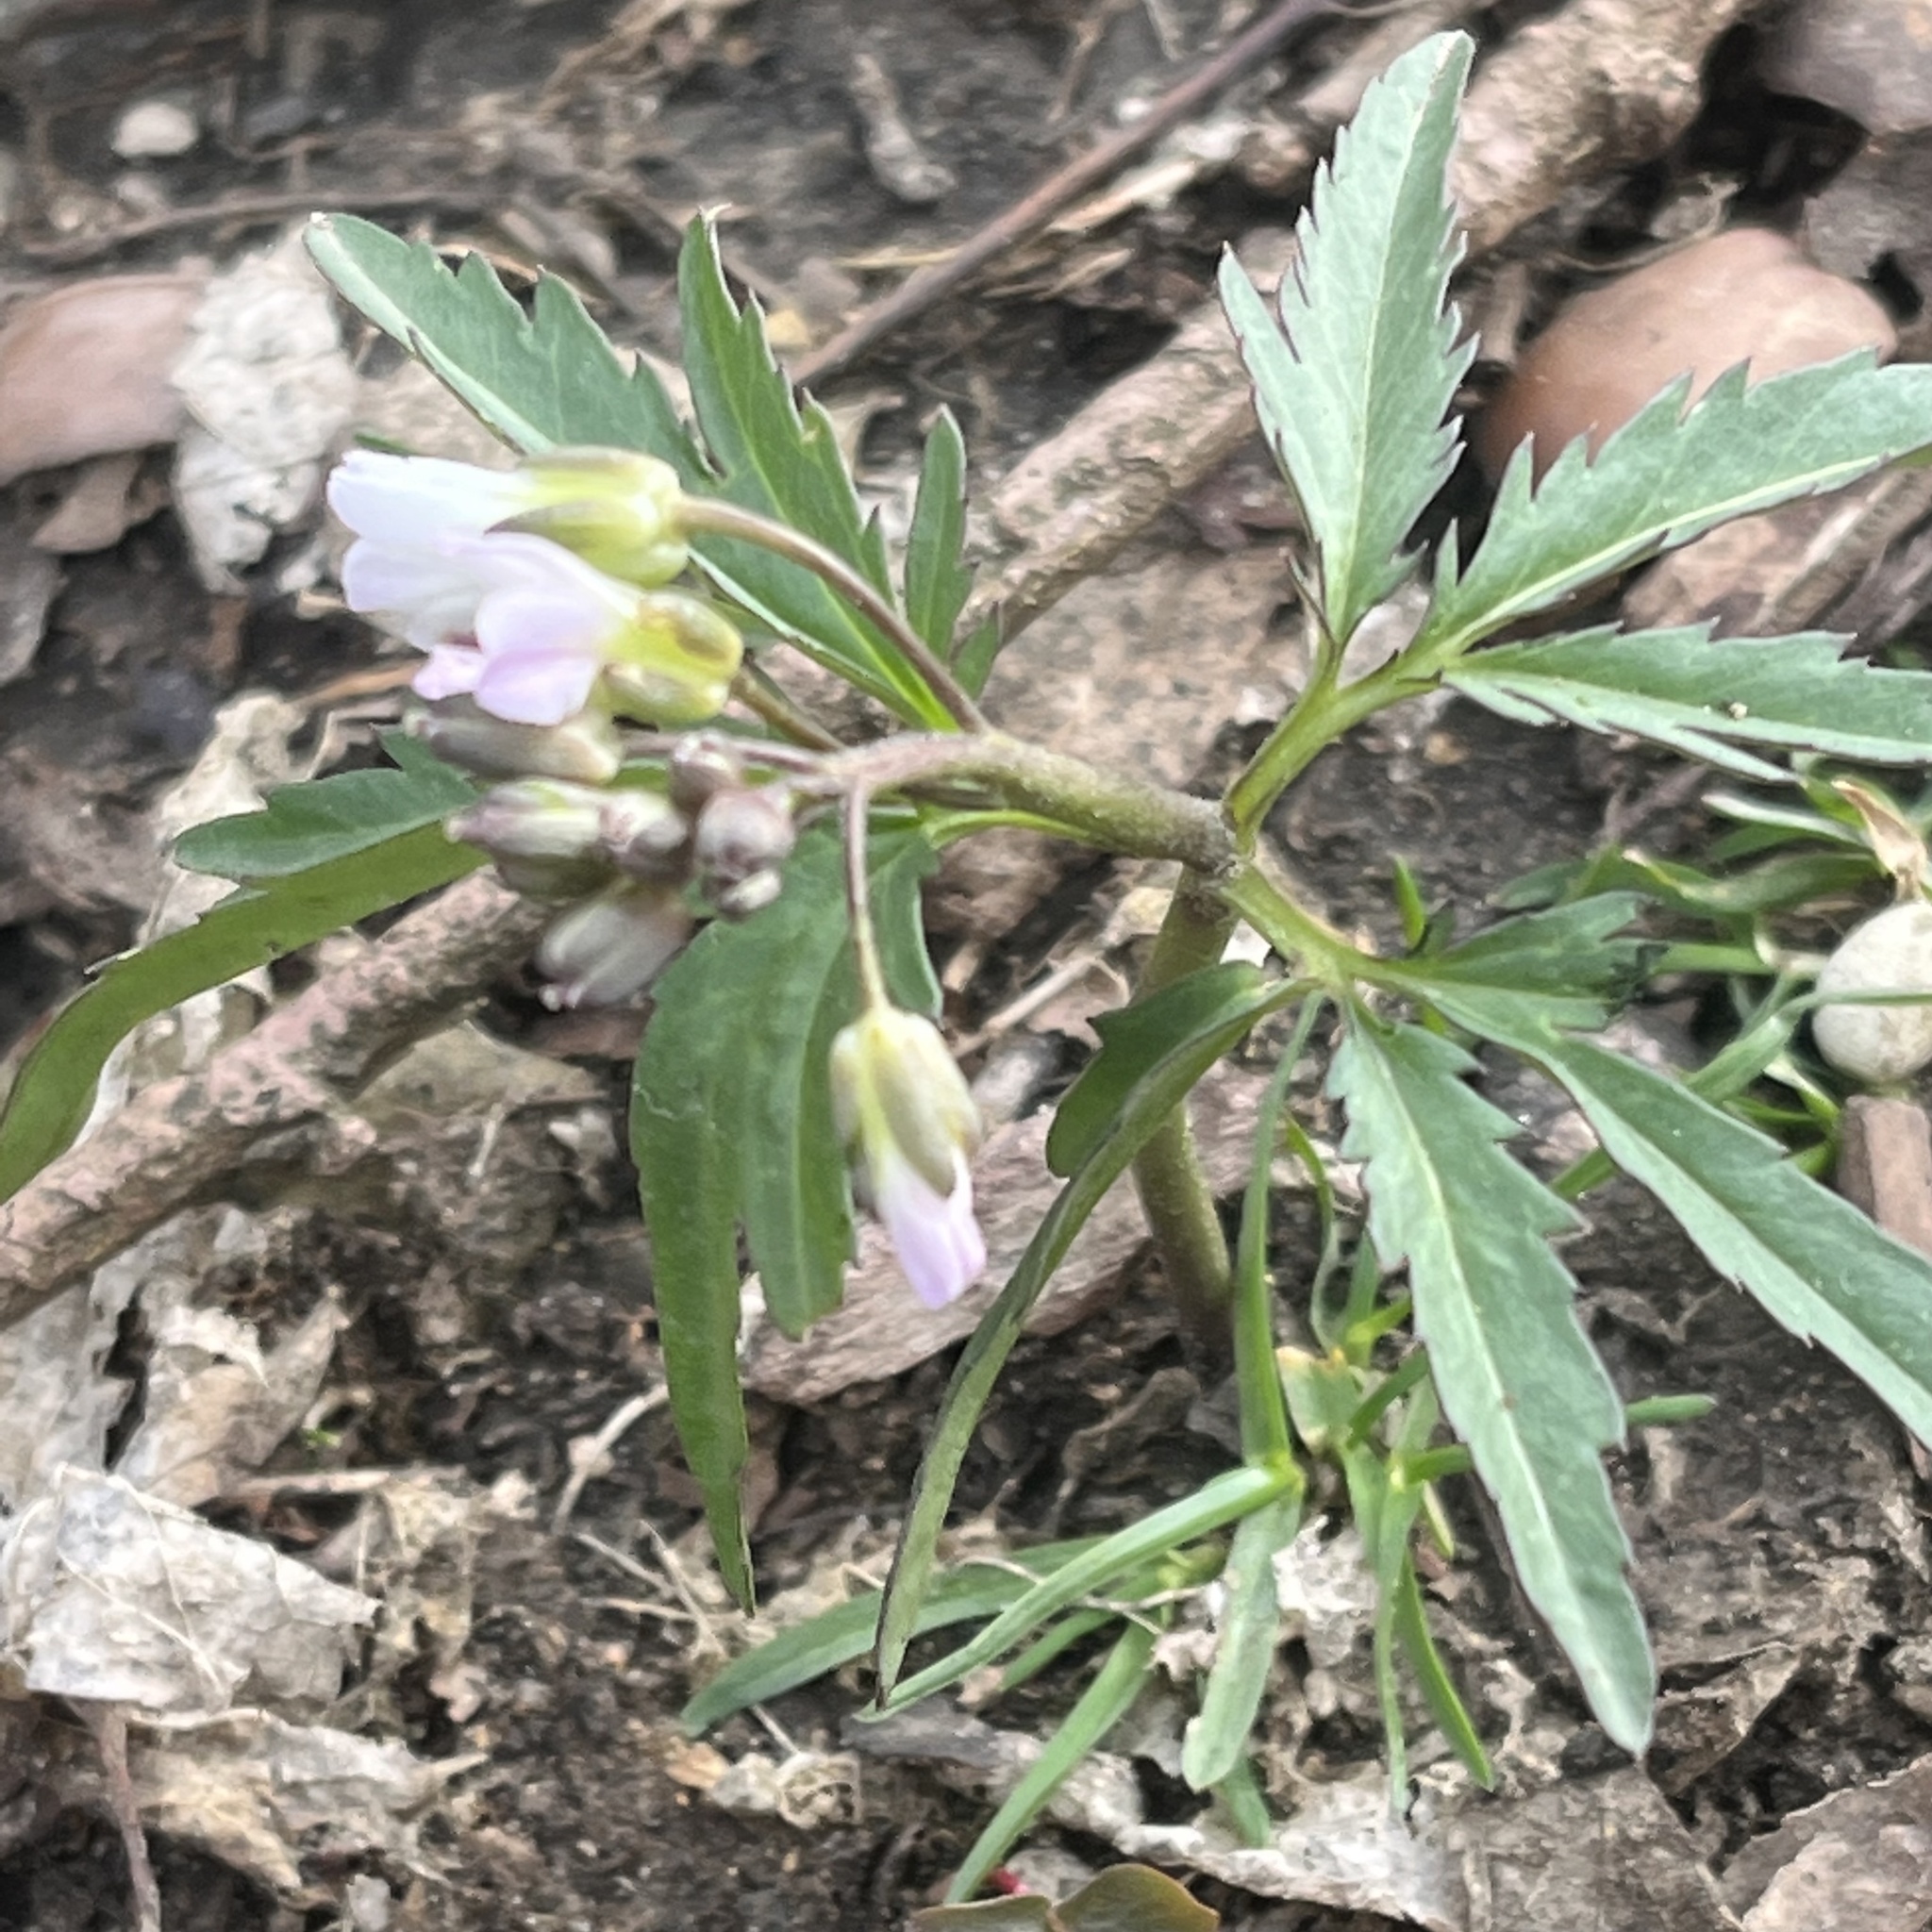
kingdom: Plantae
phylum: Tracheophyta
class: Magnoliopsida
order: Brassicales
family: Brassicaceae
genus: Cardamine
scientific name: Cardamine concatenata
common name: Cut-leaf toothcup
